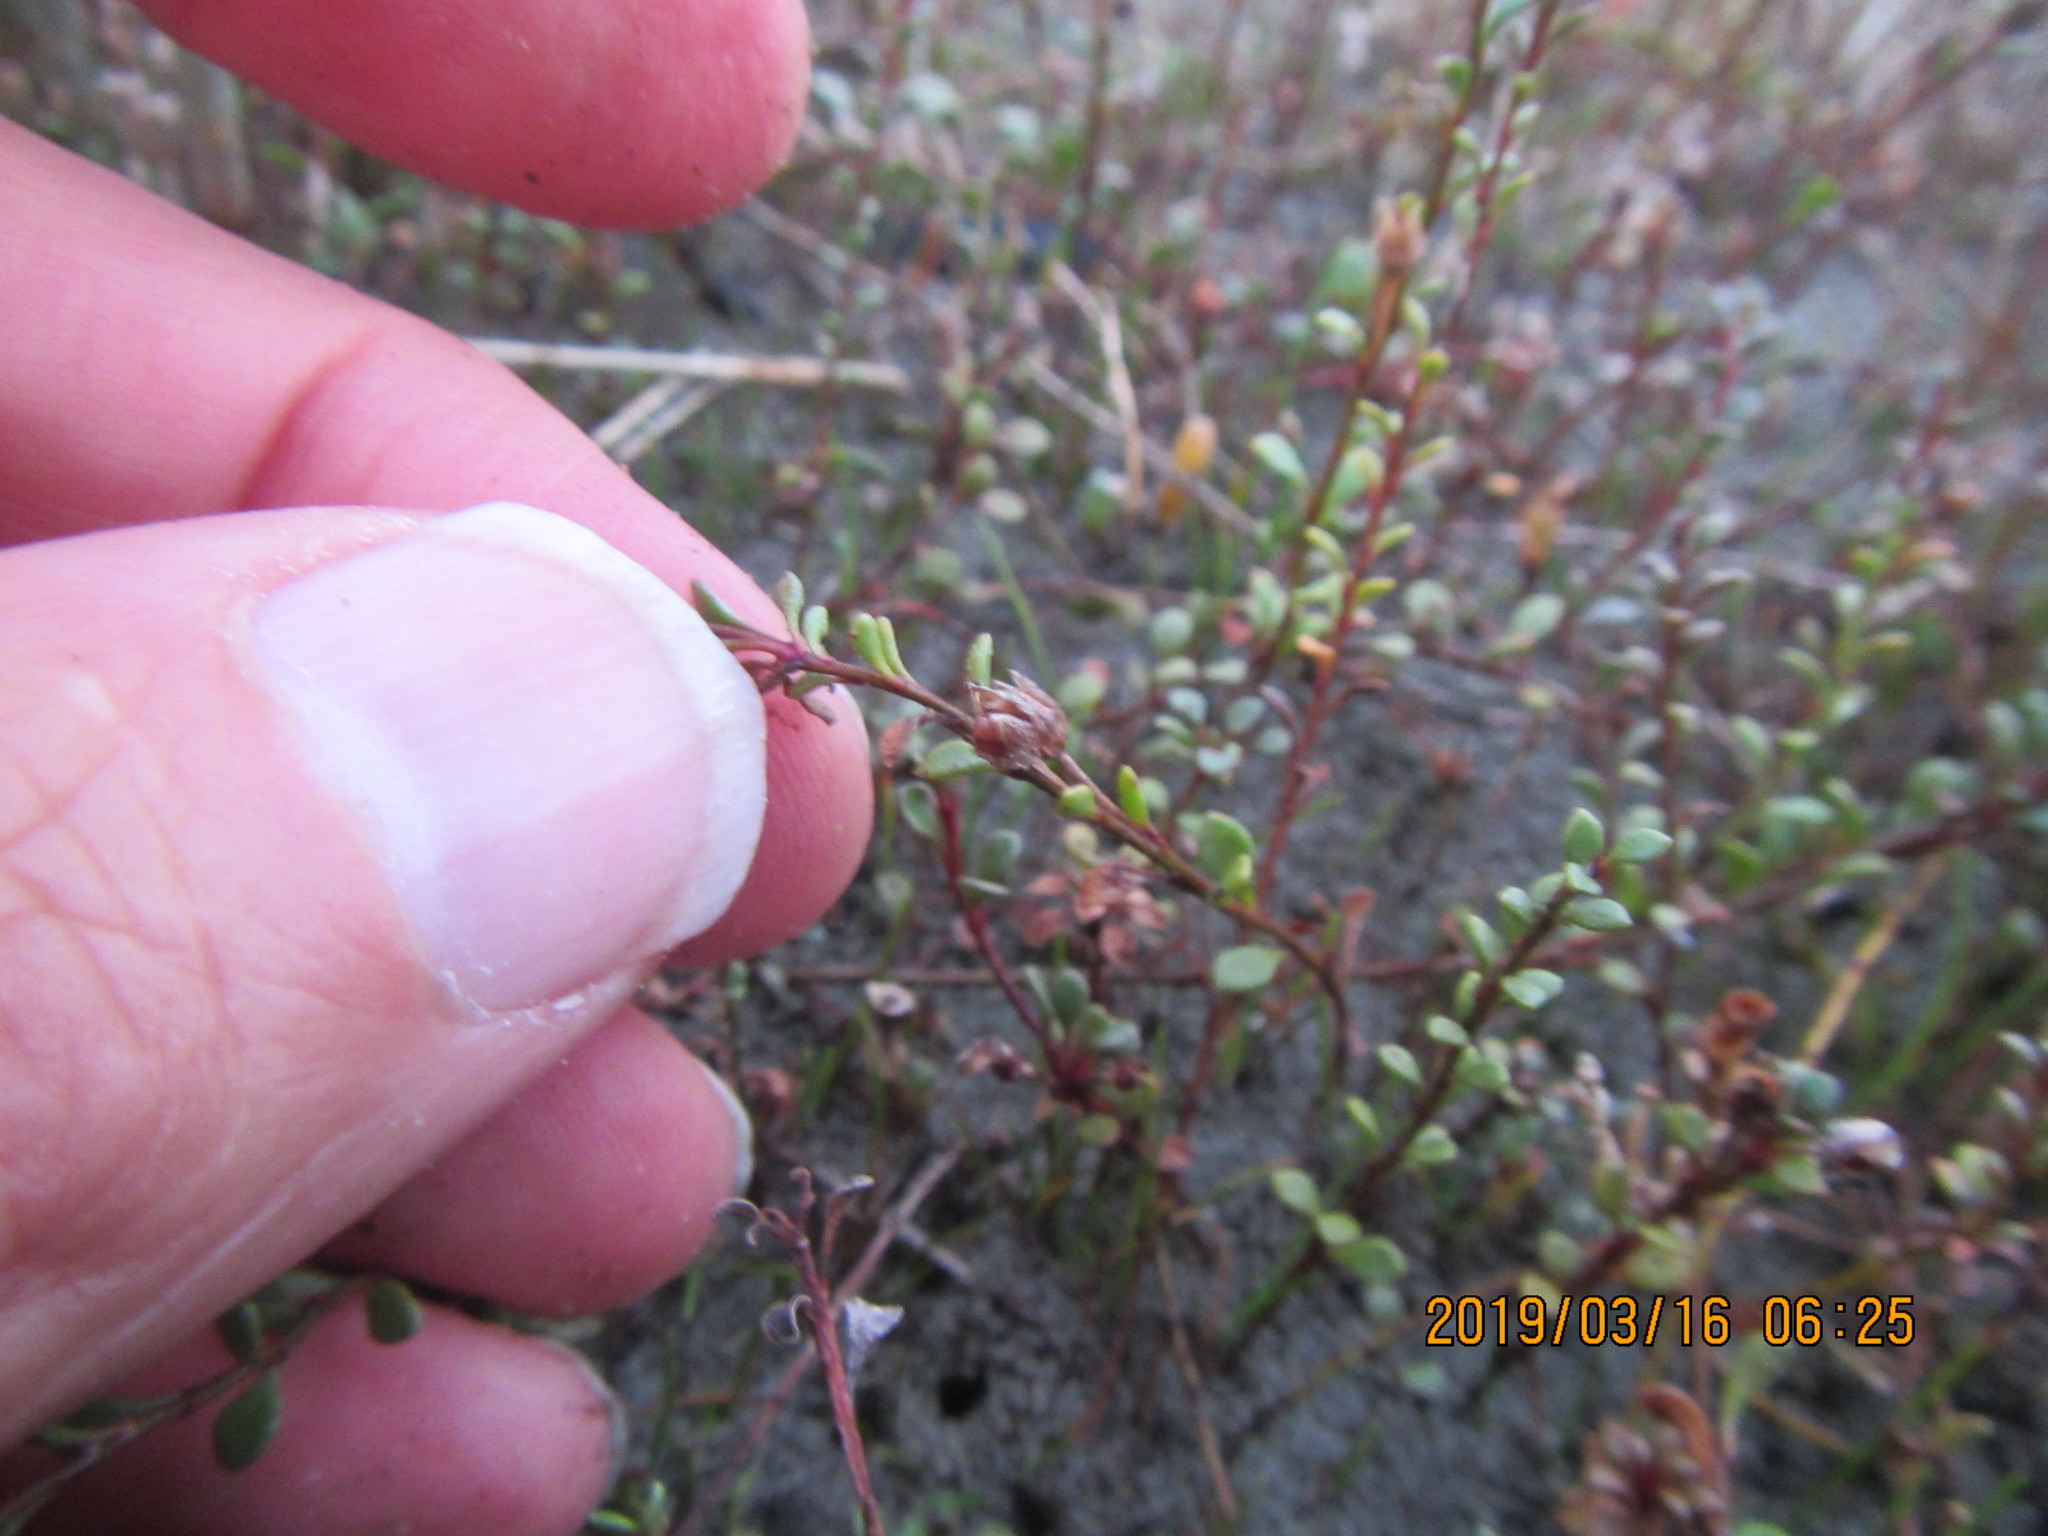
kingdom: Plantae
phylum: Tracheophyta
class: Magnoliopsida
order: Ericales
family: Primulaceae
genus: Samolus
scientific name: Samolus repens
